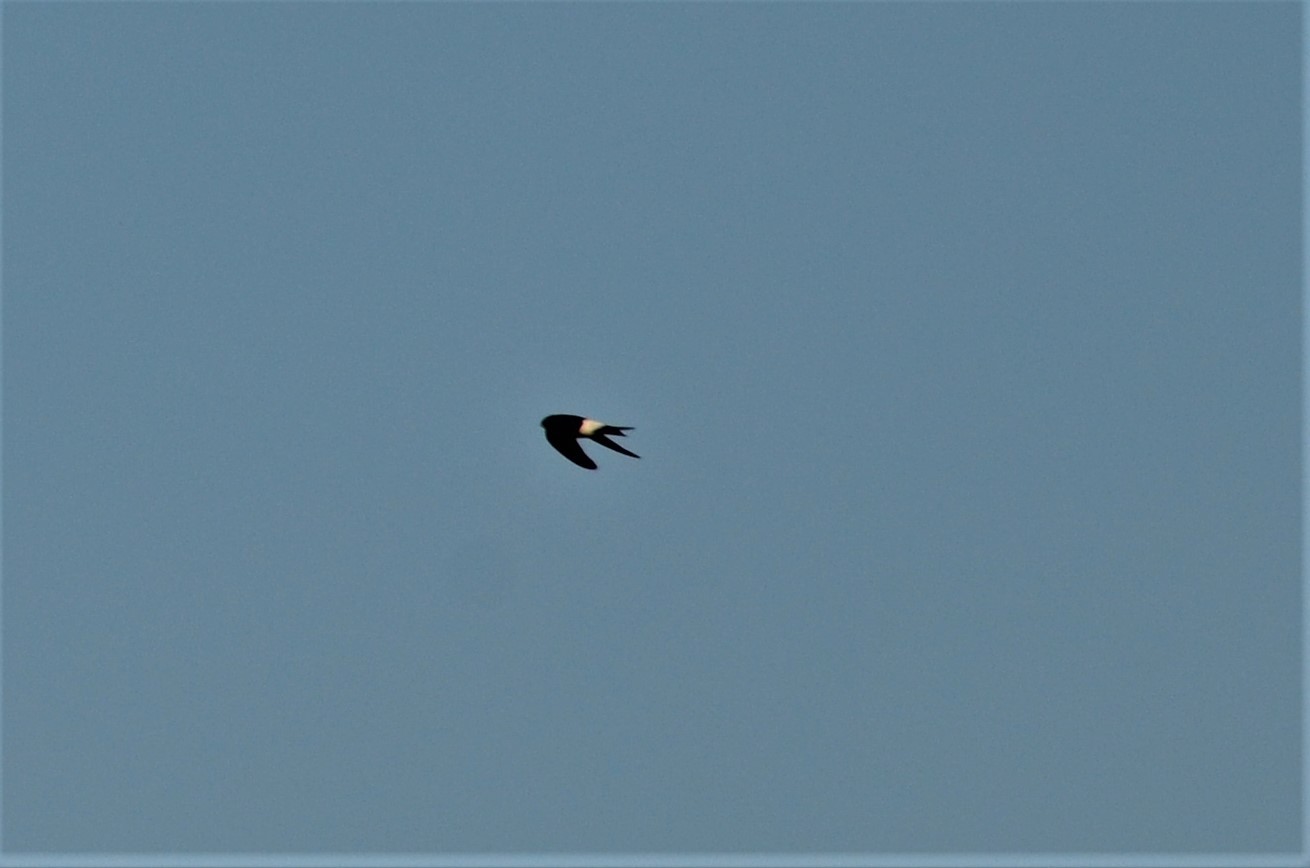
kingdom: Animalia
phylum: Chordata
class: Aves
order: Passeriformes
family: Hirundinidae
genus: Delichon
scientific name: Delichon urbicum
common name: Common house martin
